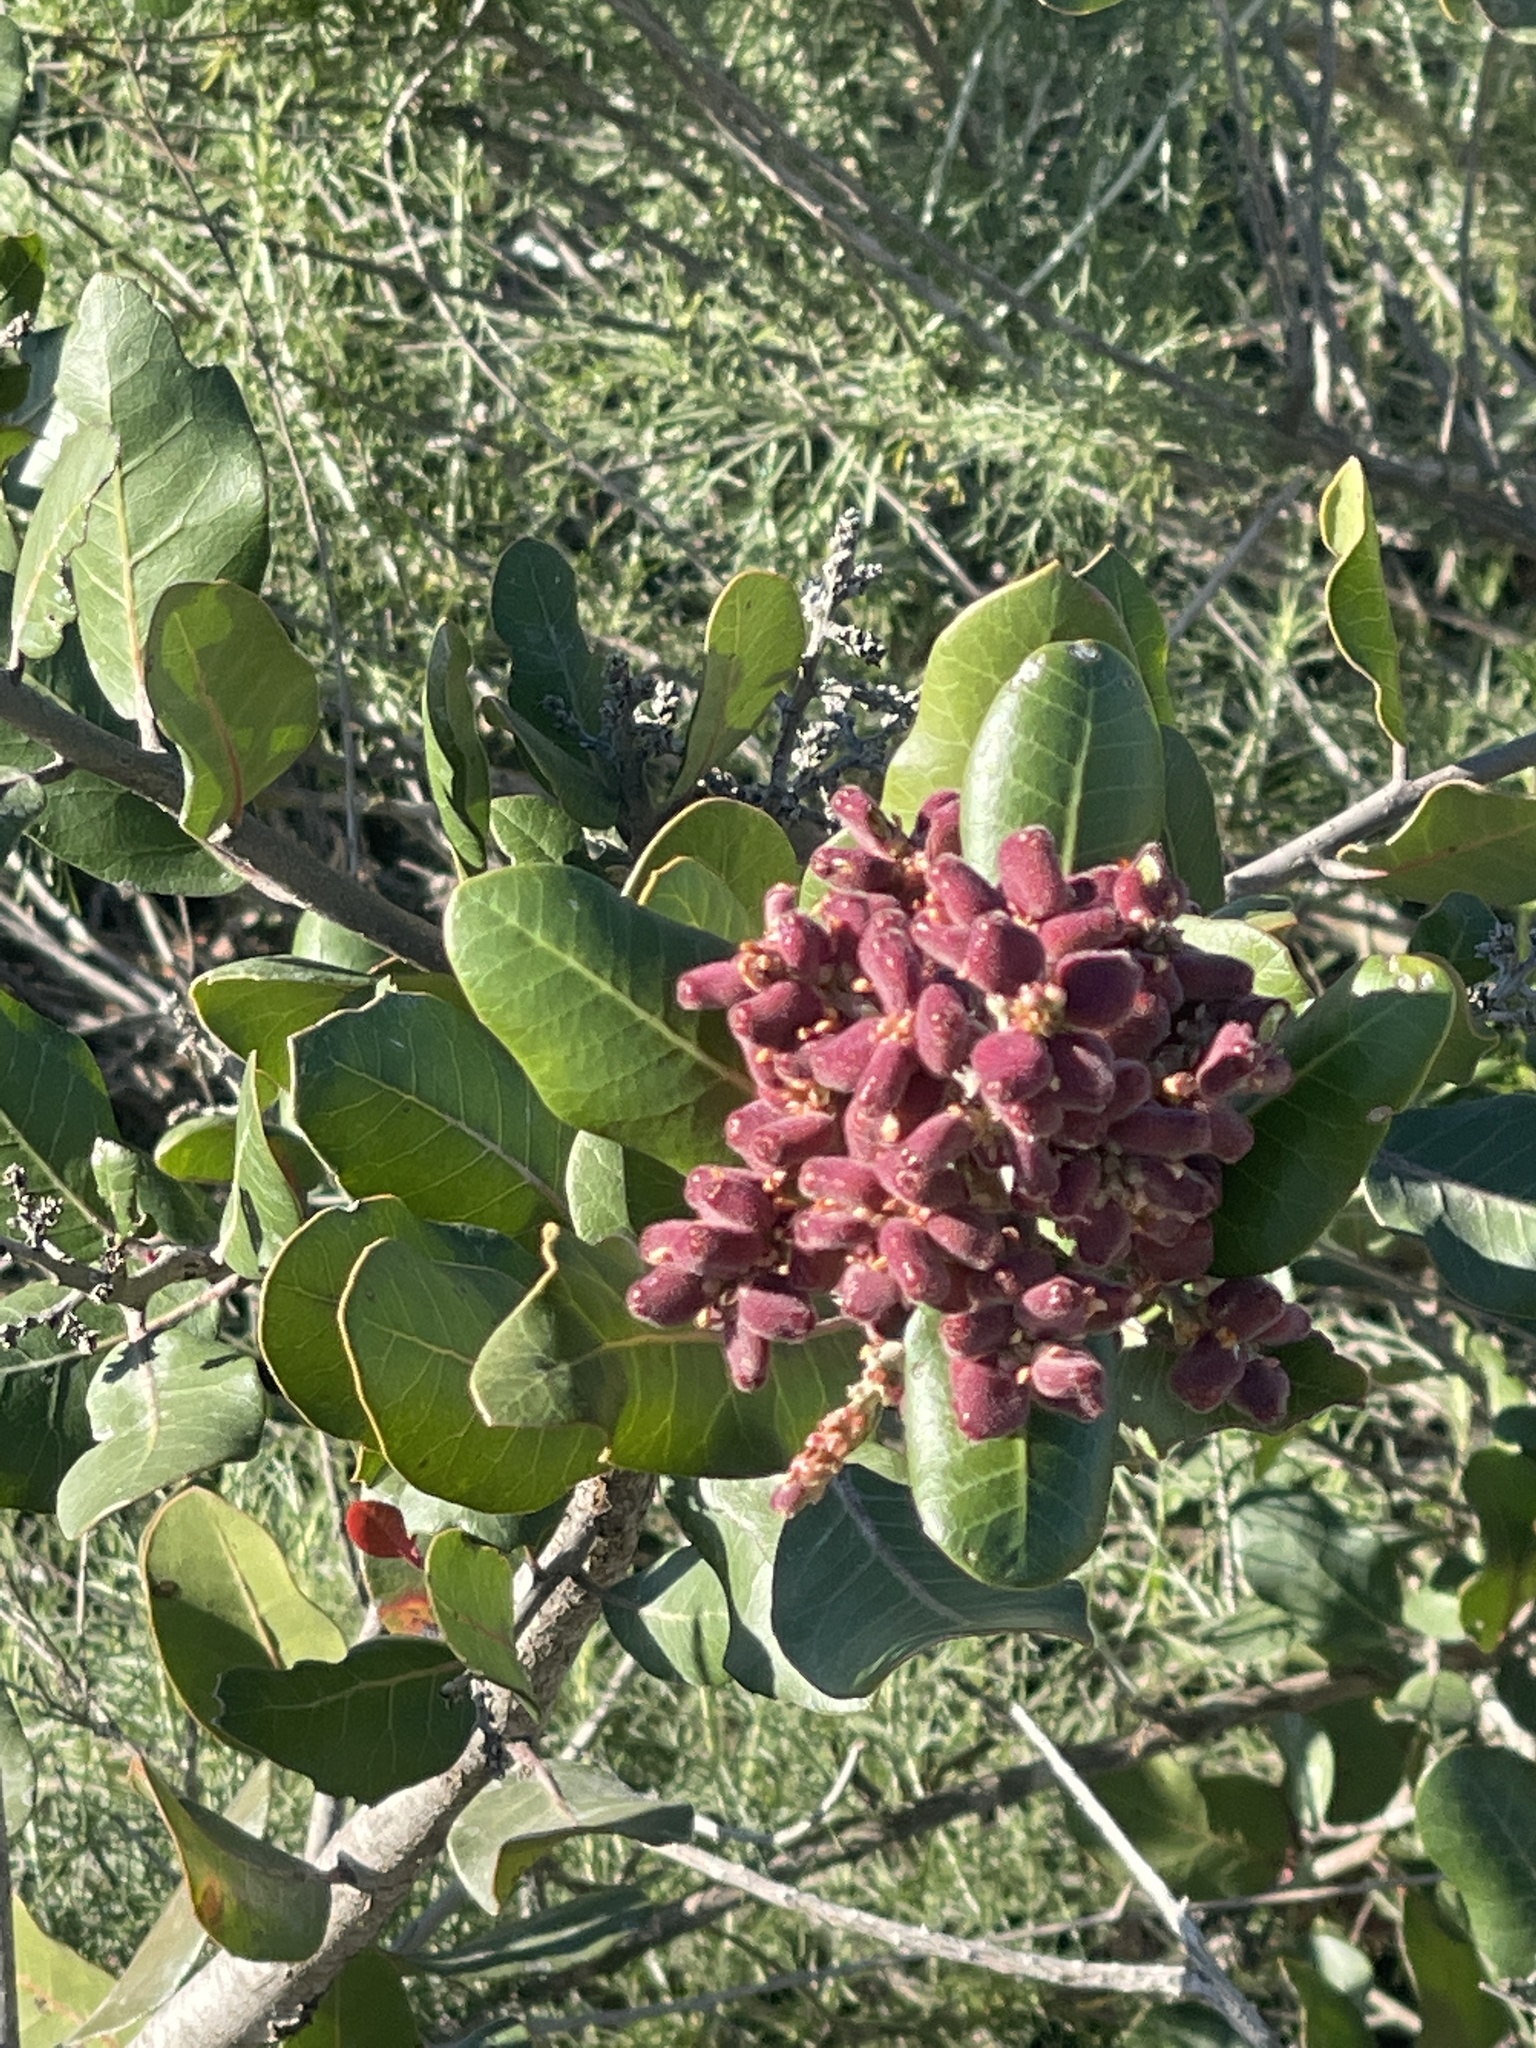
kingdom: Plantae
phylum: Tracheophyta
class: Magnoliopsida
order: Sapindales
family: Anacardiaceae
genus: Rhus
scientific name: Rhus integrifolia
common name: Lemonade sumac
